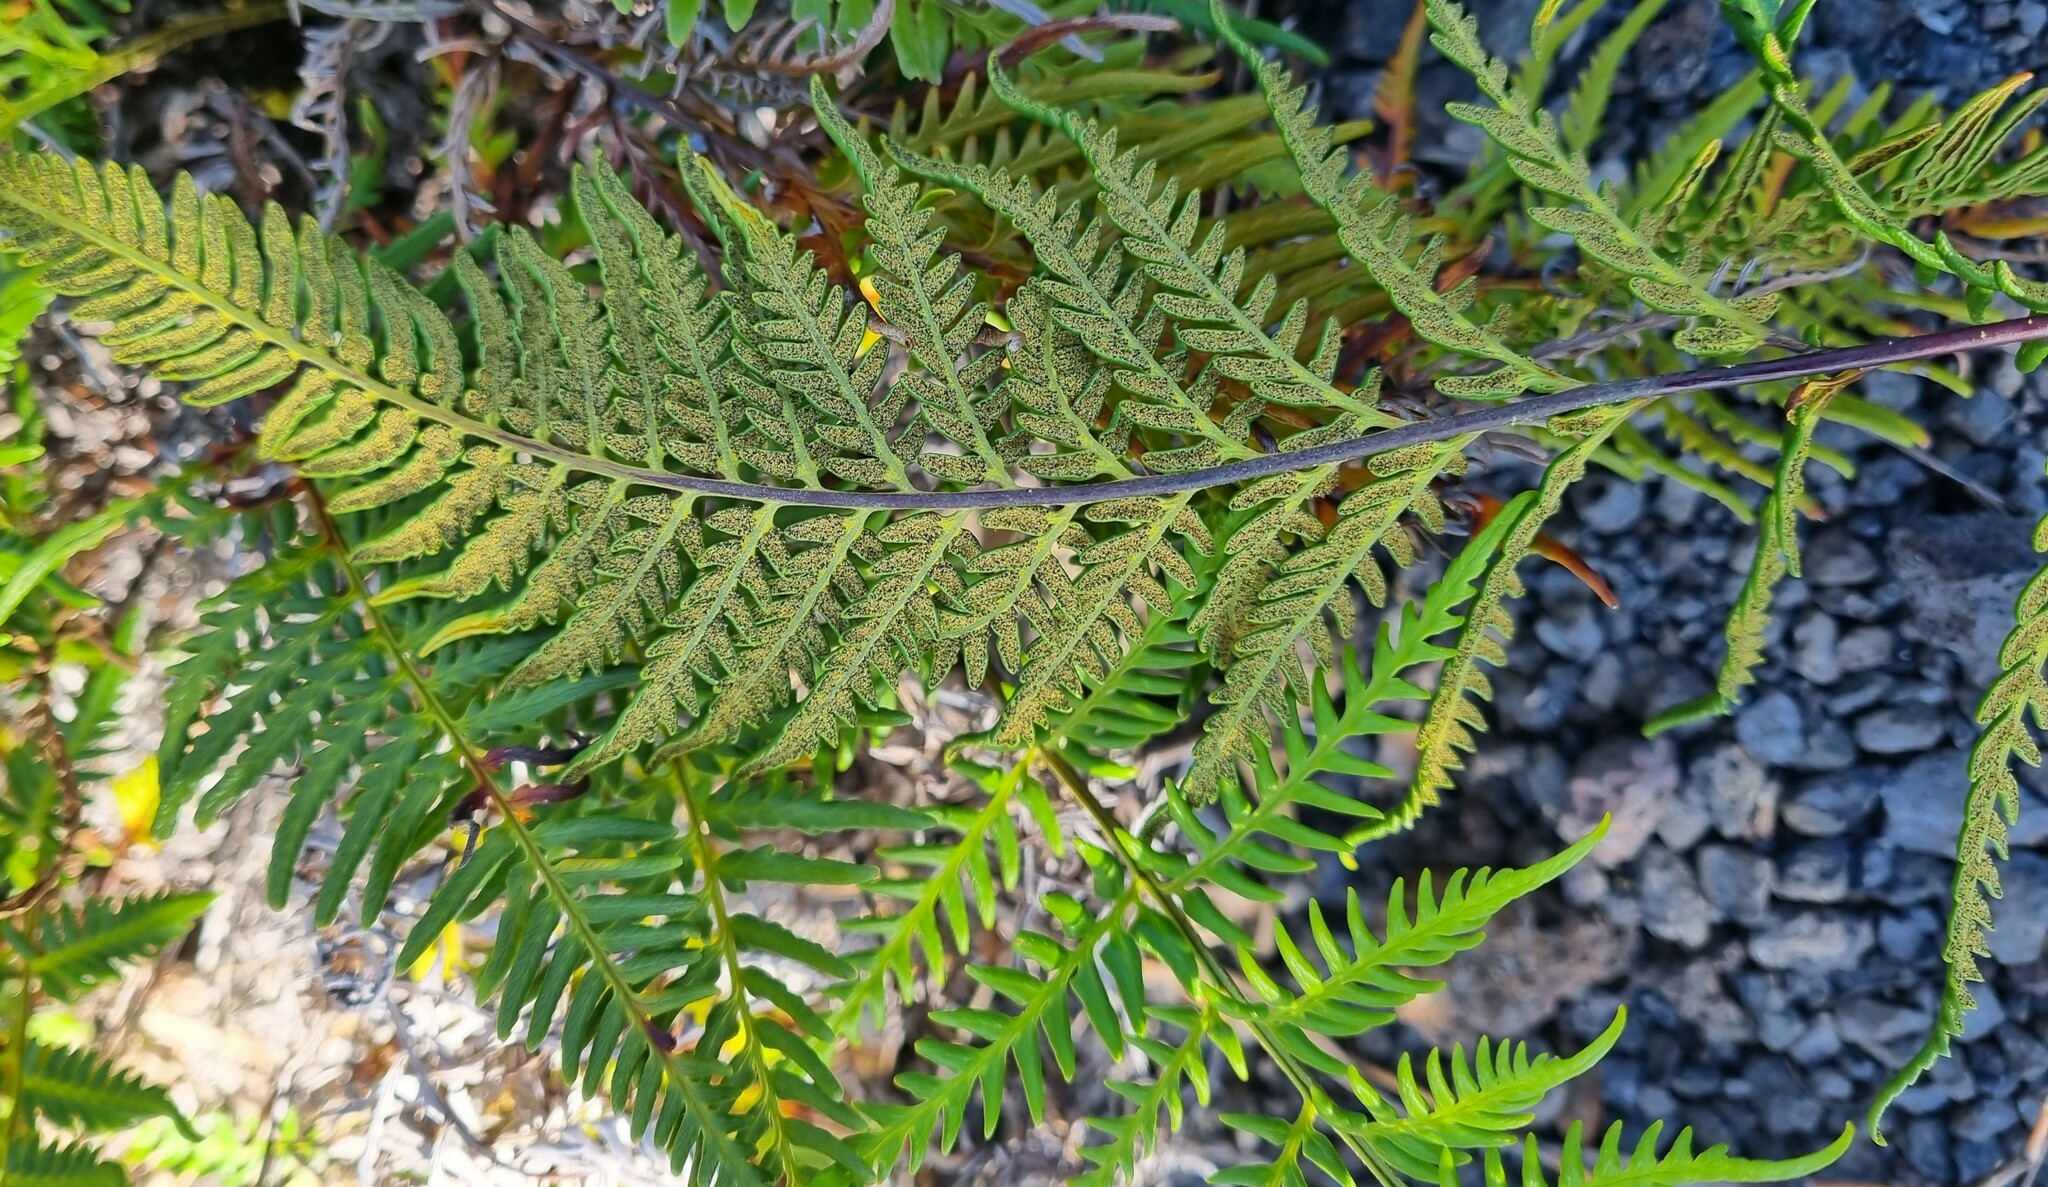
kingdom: Plantae
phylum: Tracheophyta
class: Polypodiopsida
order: Polypodiales
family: Pteridaceae
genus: Pityrogramma
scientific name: Pityrogramma austroamericana
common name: Leatherleaf goldback fern
